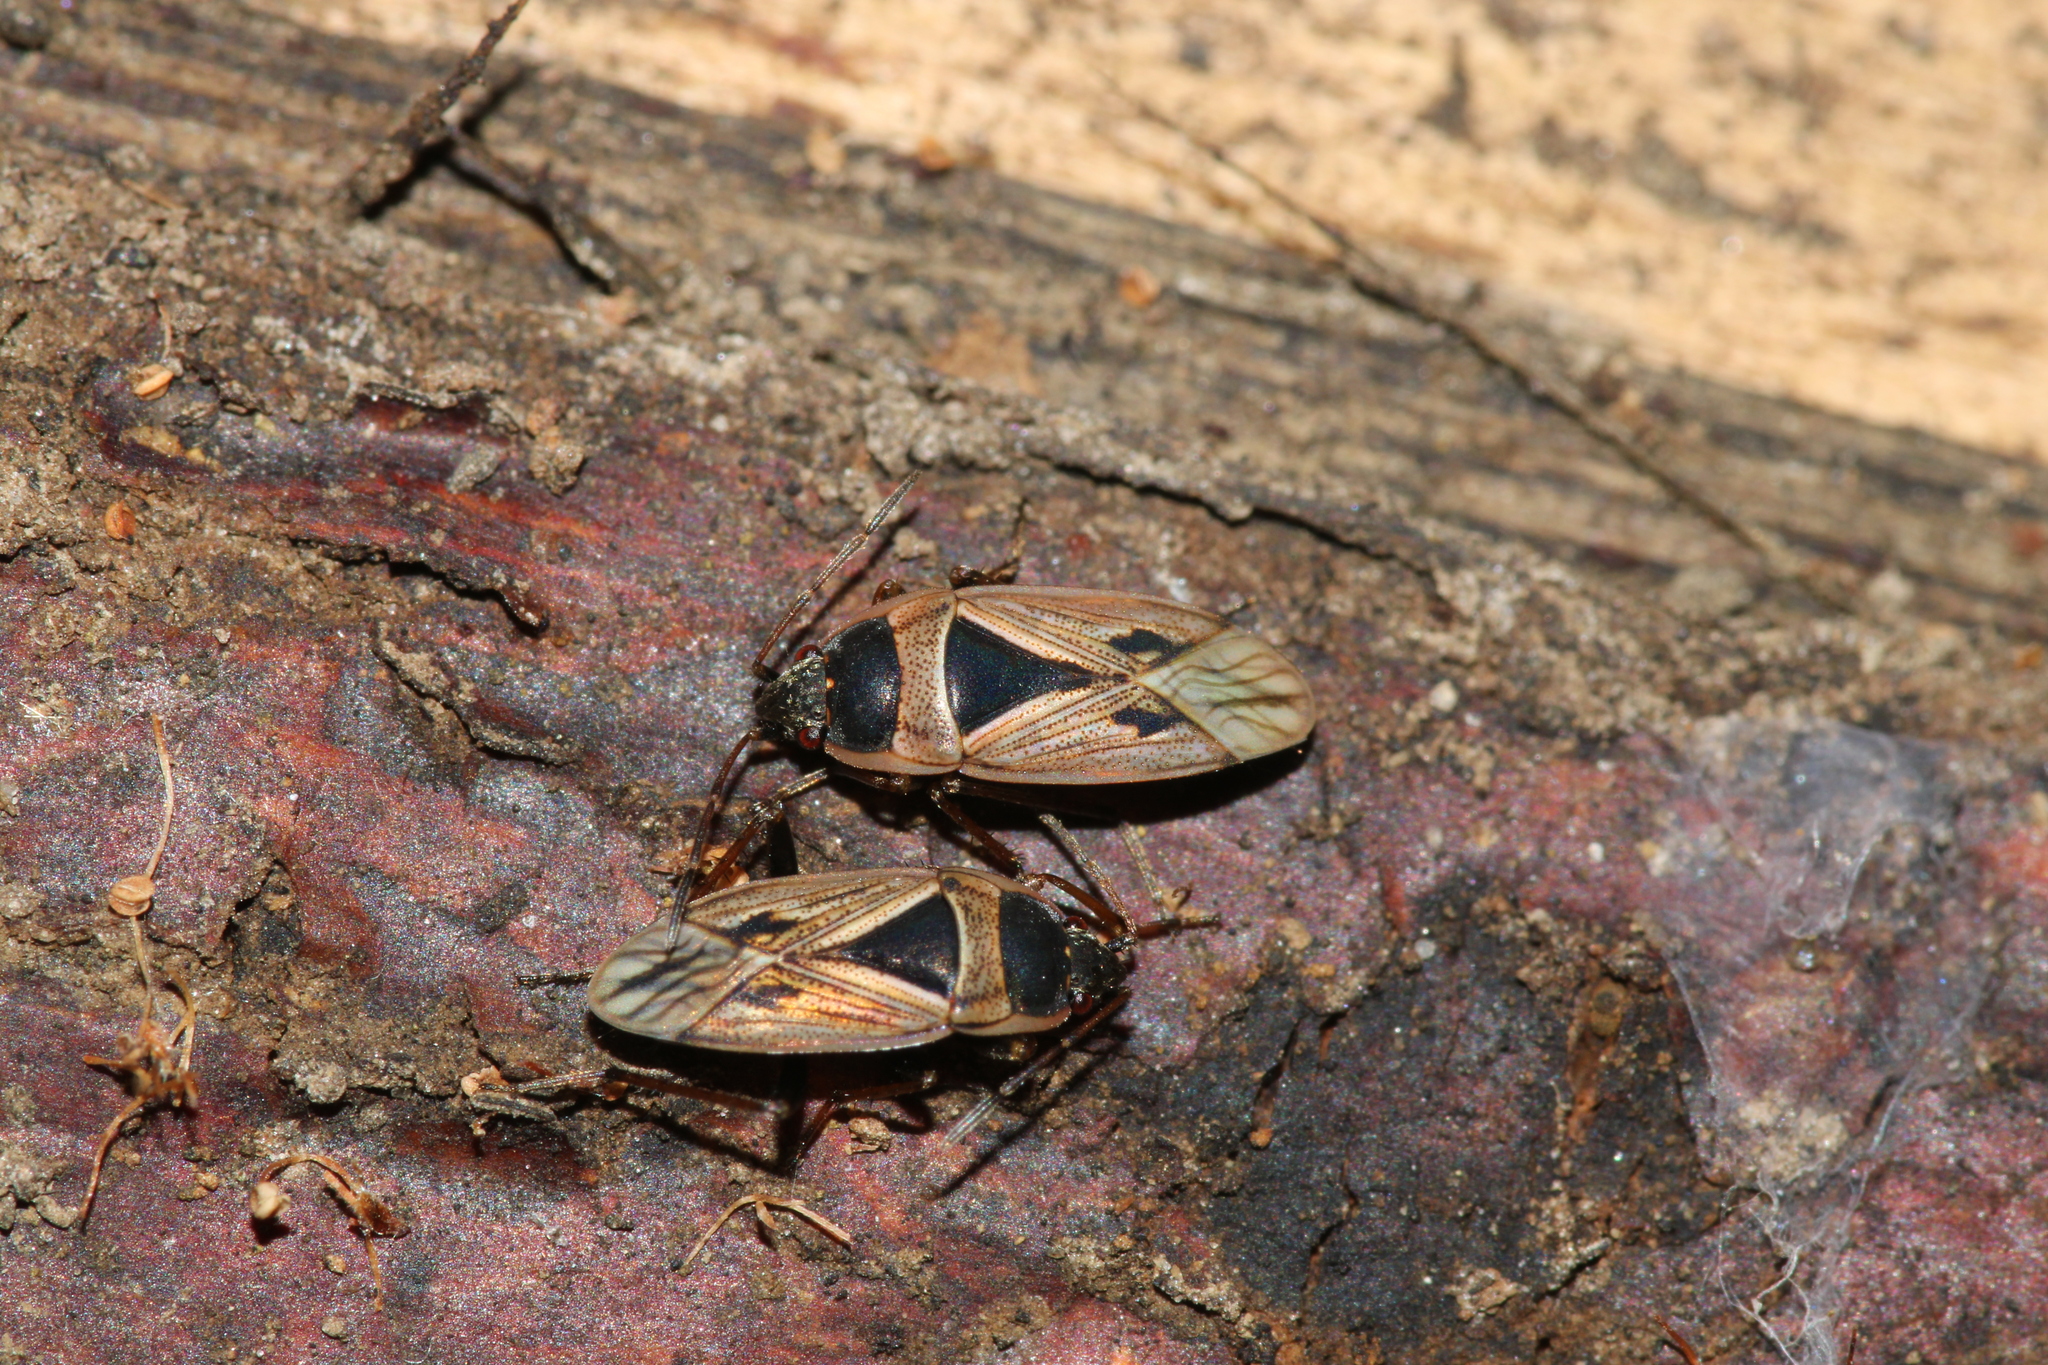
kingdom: Animalia
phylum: Arthropoda
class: Insecta
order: Hemiptera
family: Rhyparochromidae
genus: Xanthochilus
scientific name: Xanthochilus quadratus
